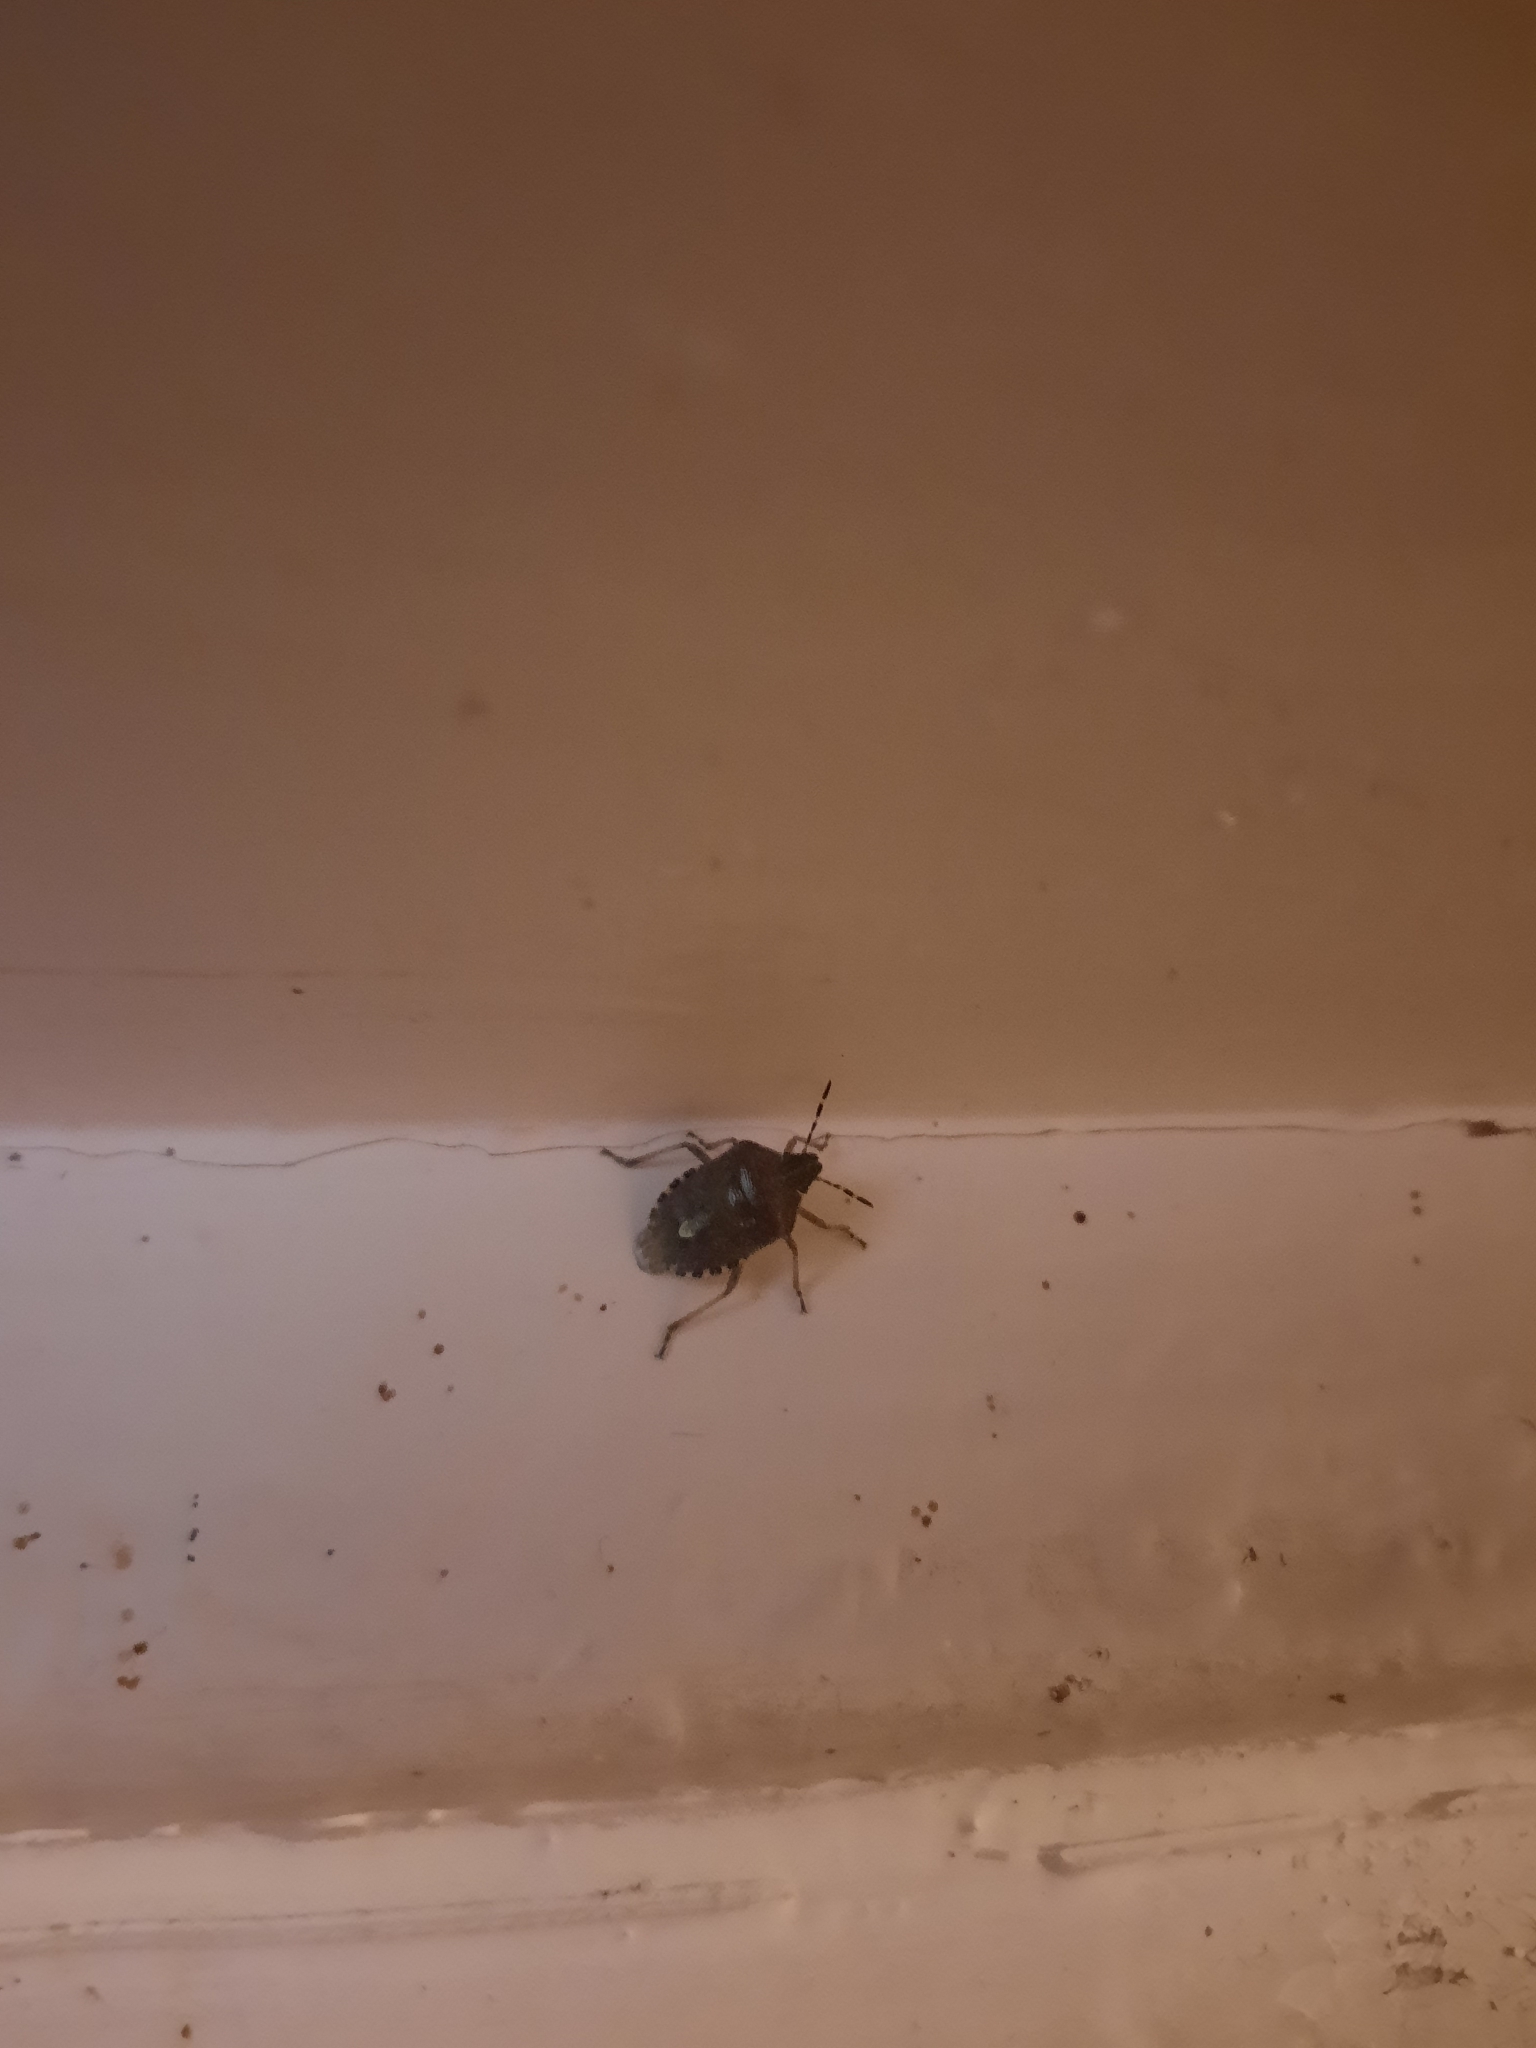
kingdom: Animalia
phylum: Arthropoda
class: Insecta
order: Hemiptera
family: Pentatomidae
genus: Dolycoris
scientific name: Dolycoris baccarum
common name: Sloe bug
